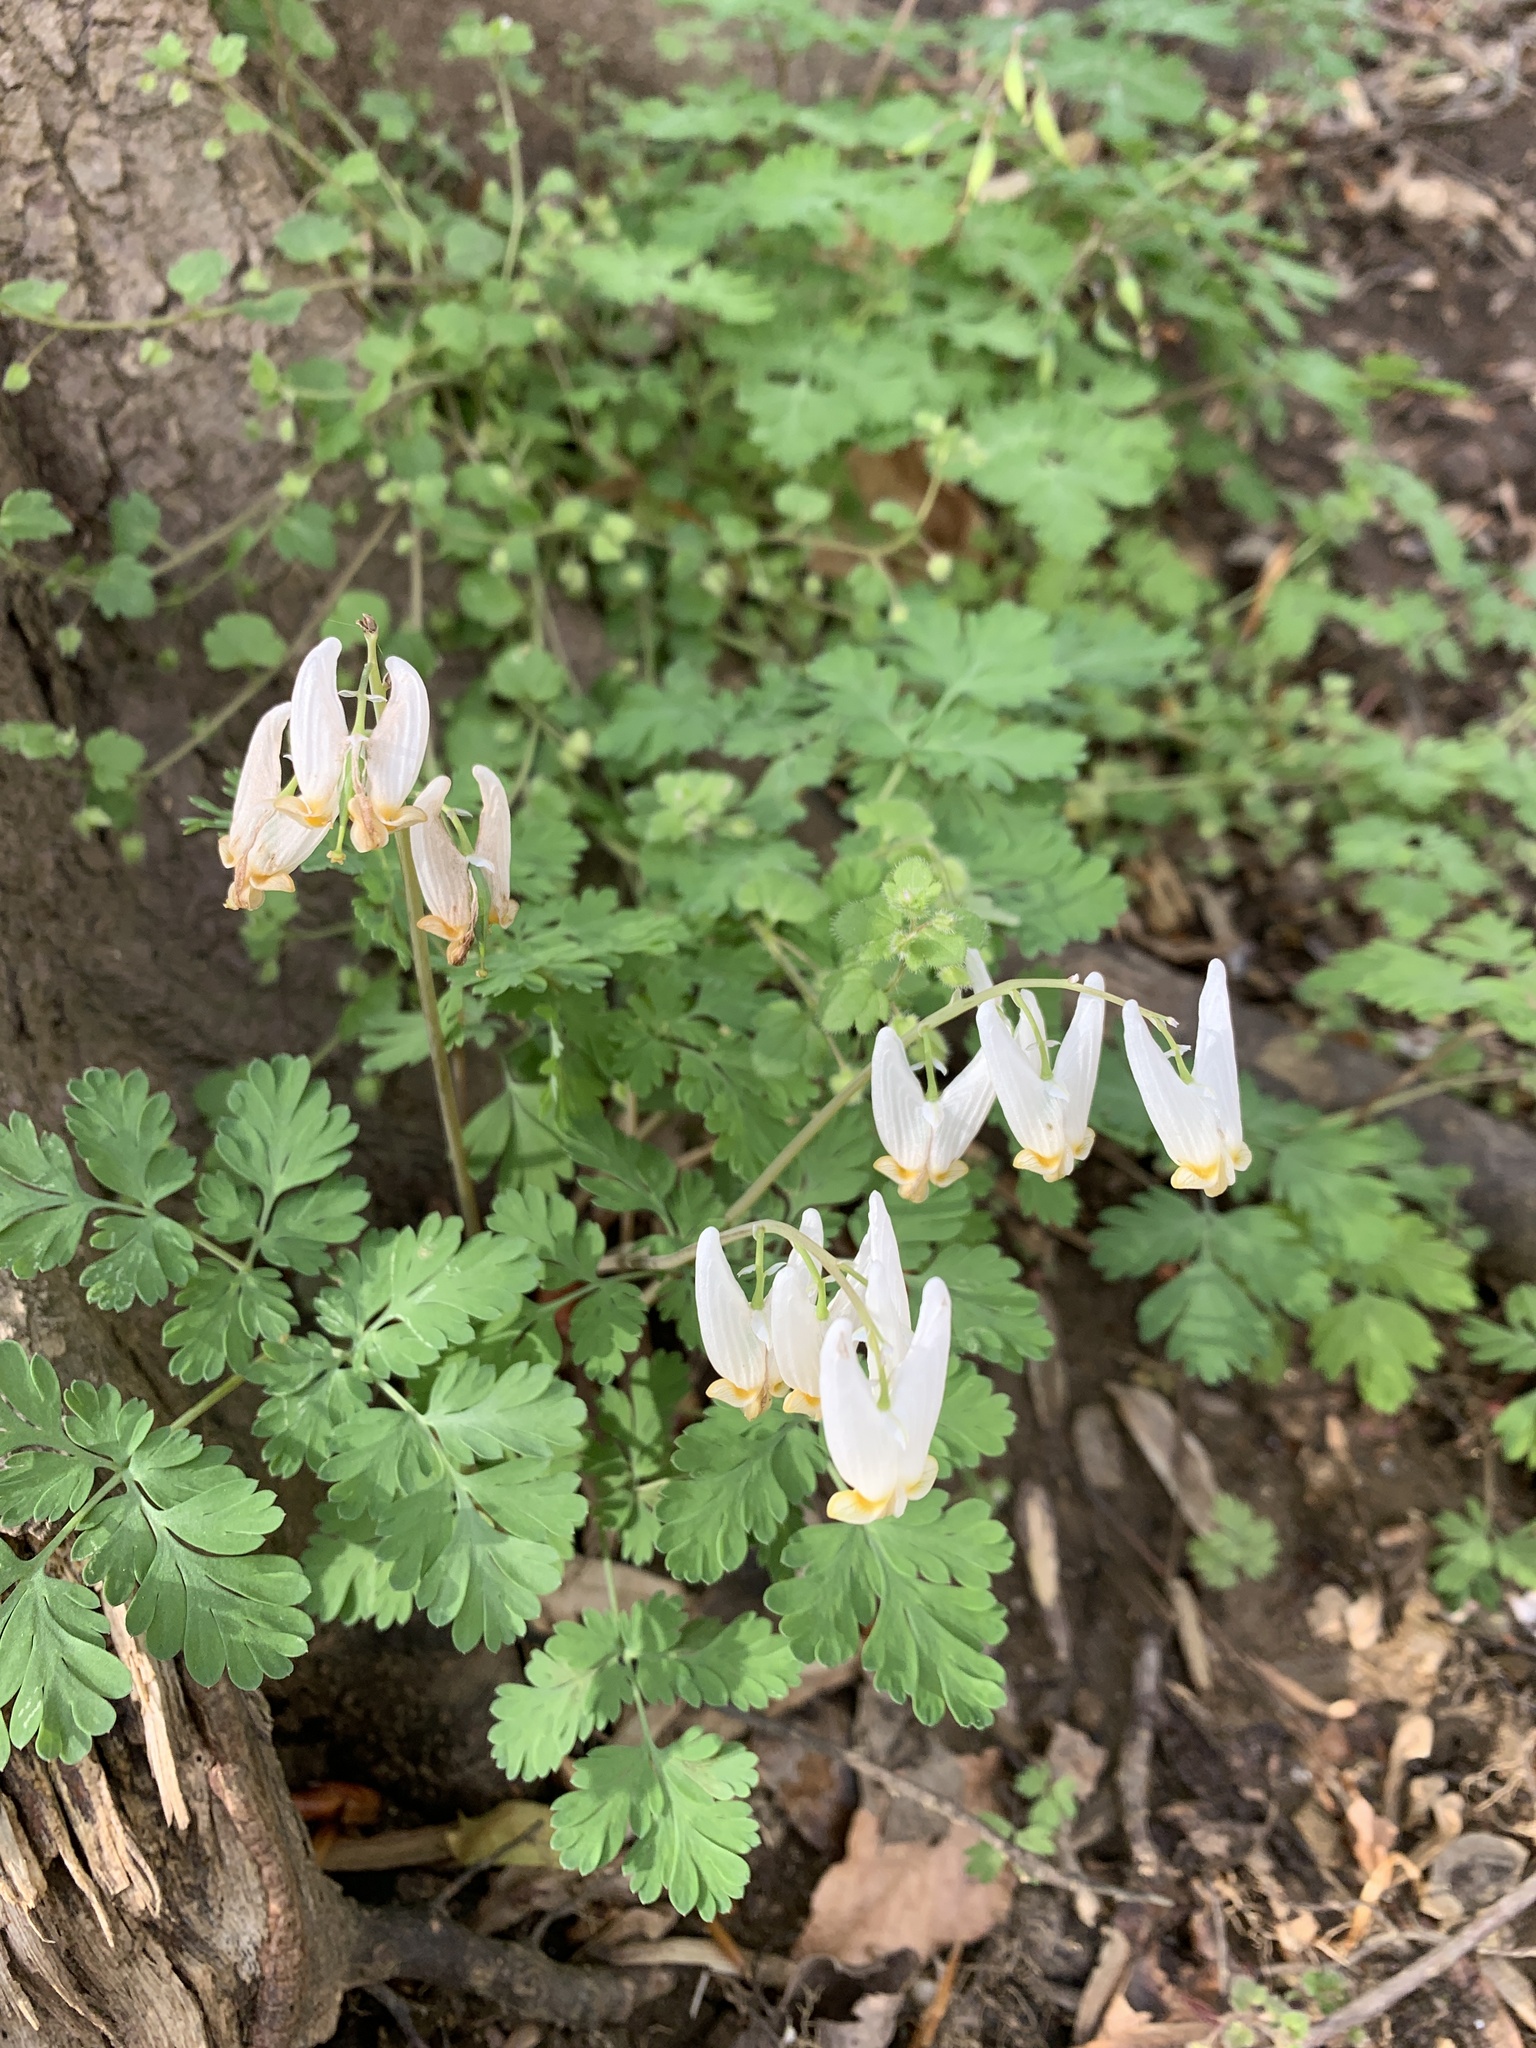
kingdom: Plantae
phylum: Tracheophyta
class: Magnoliopsida
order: Ranunculales
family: Papaveraceae
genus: Dicentra
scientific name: Dicentra cucullaria
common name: Dutchman's breeches
